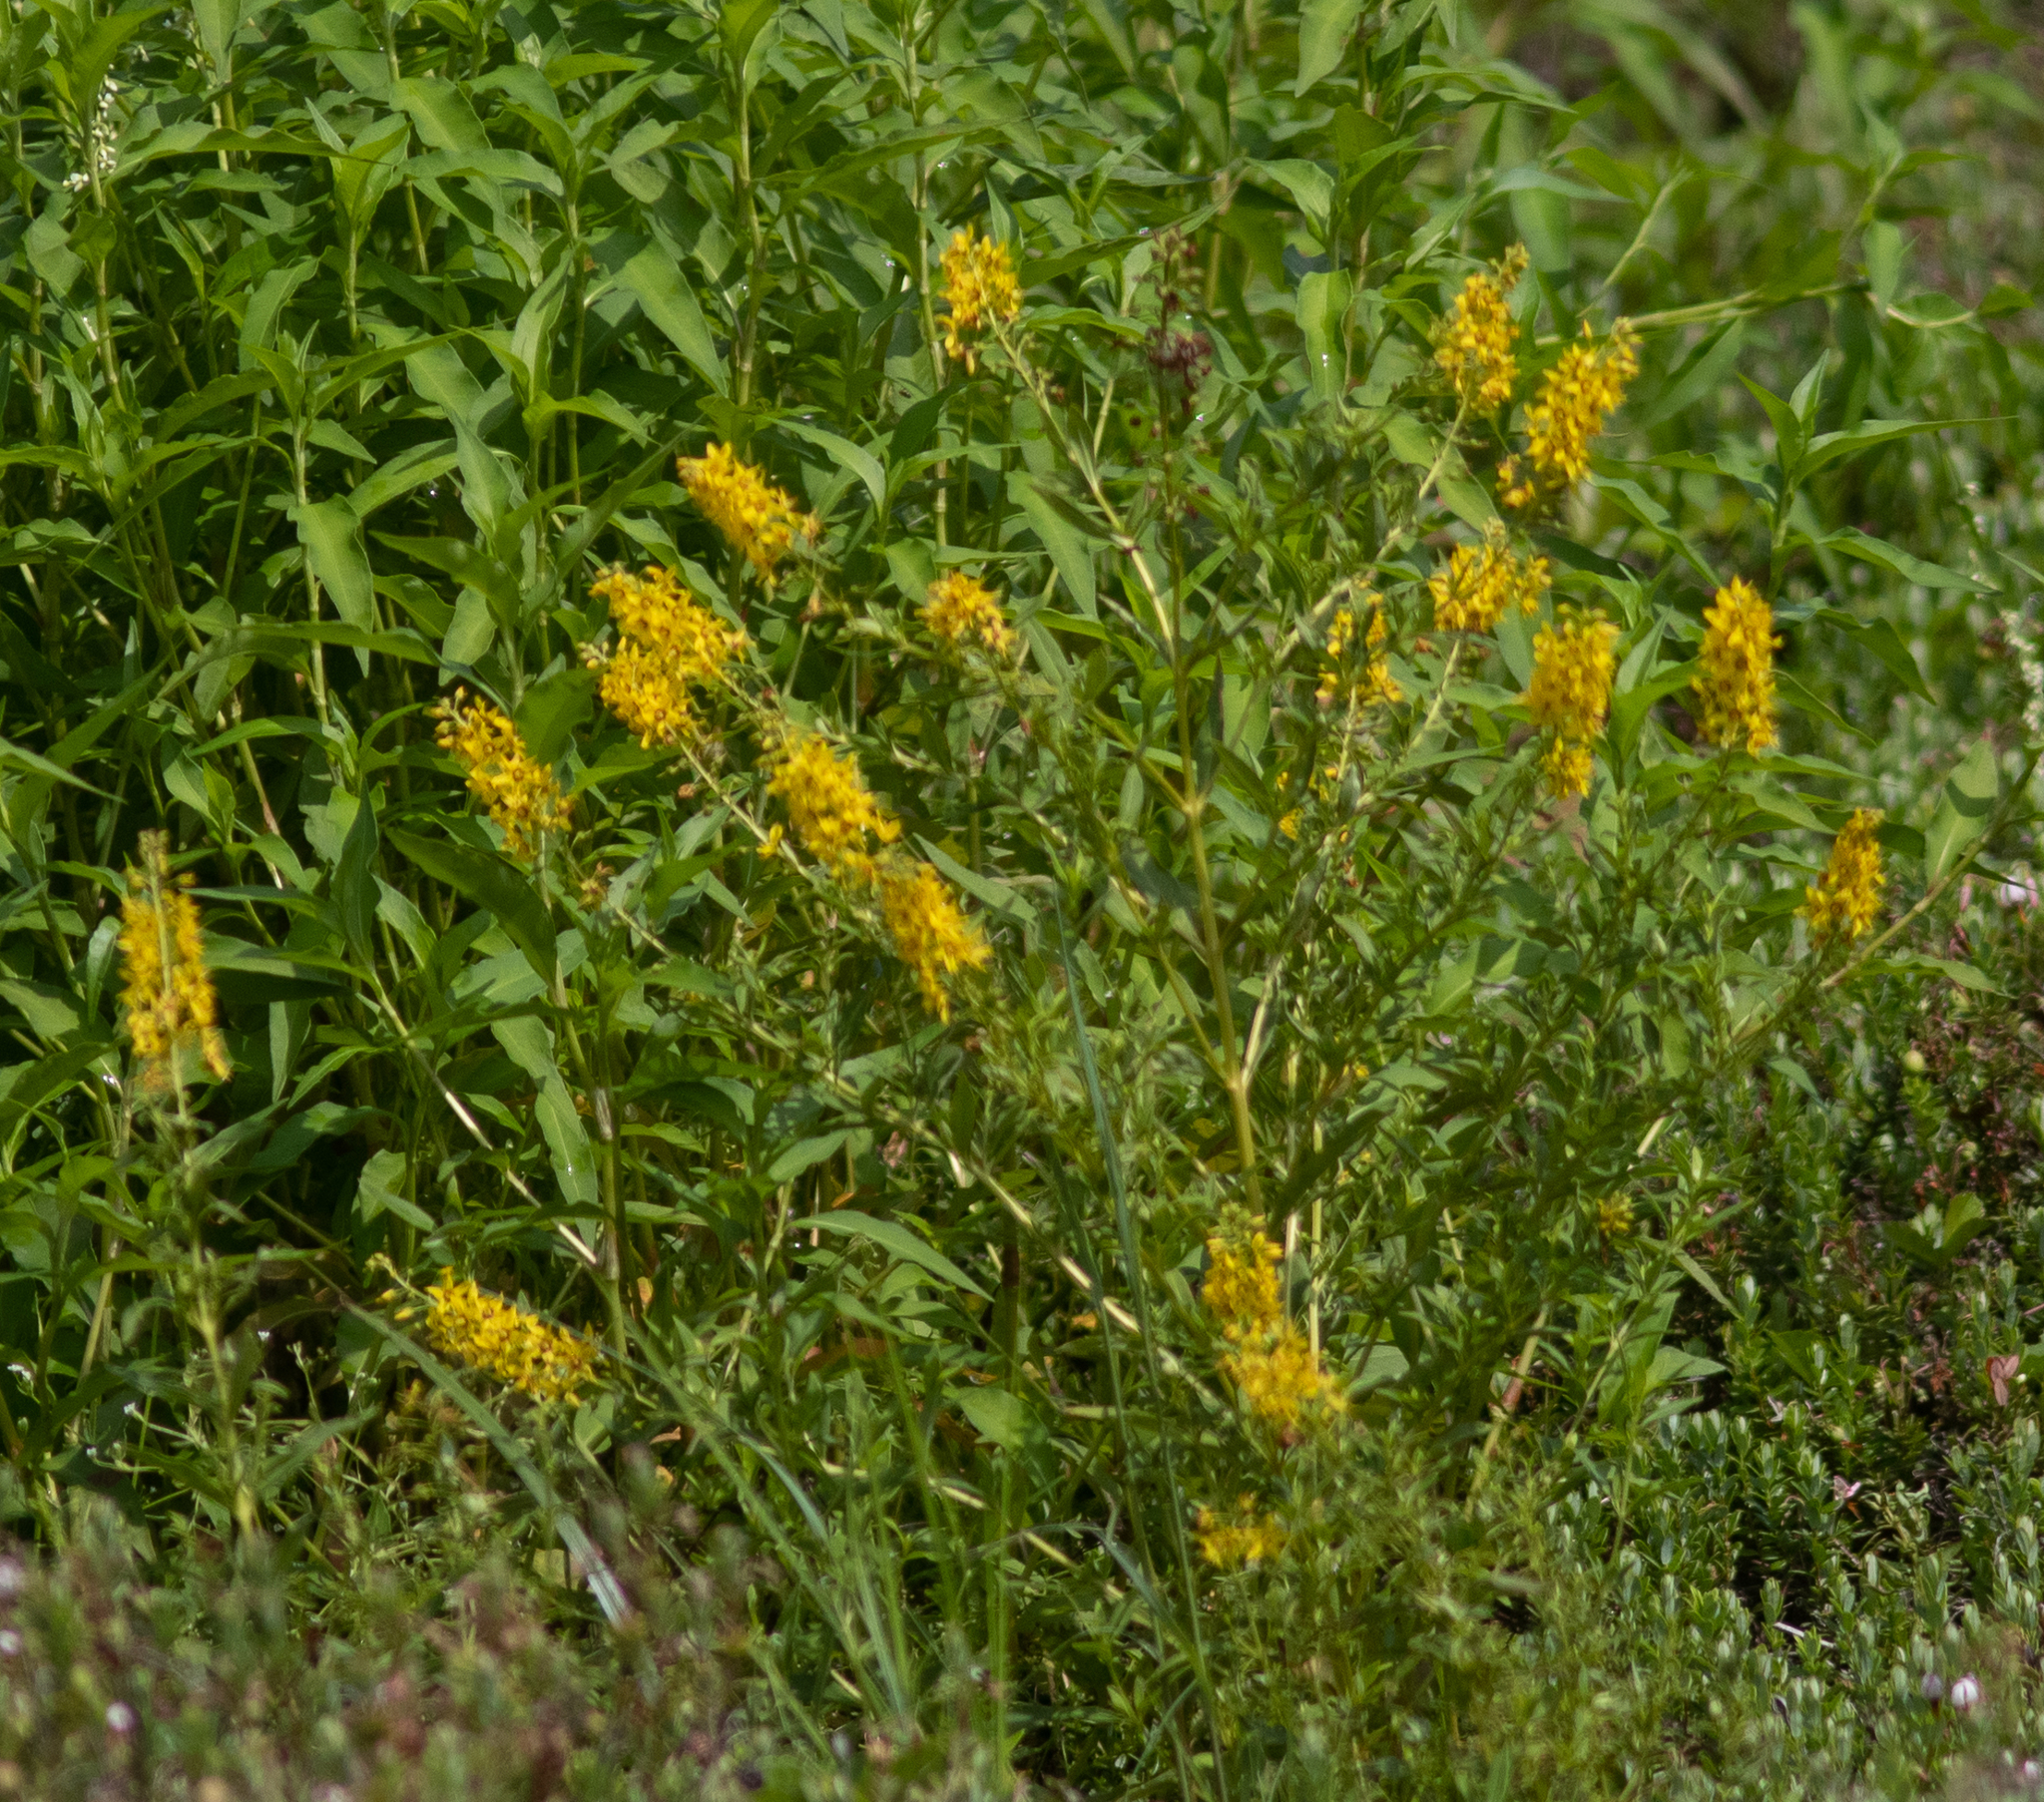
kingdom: Plantae
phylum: Tracheophyta
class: Magnoliopsida
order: Ericales
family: Primulaceae
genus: Lysimachia
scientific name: Lysimachia terrestris
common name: Lake loosestrife
